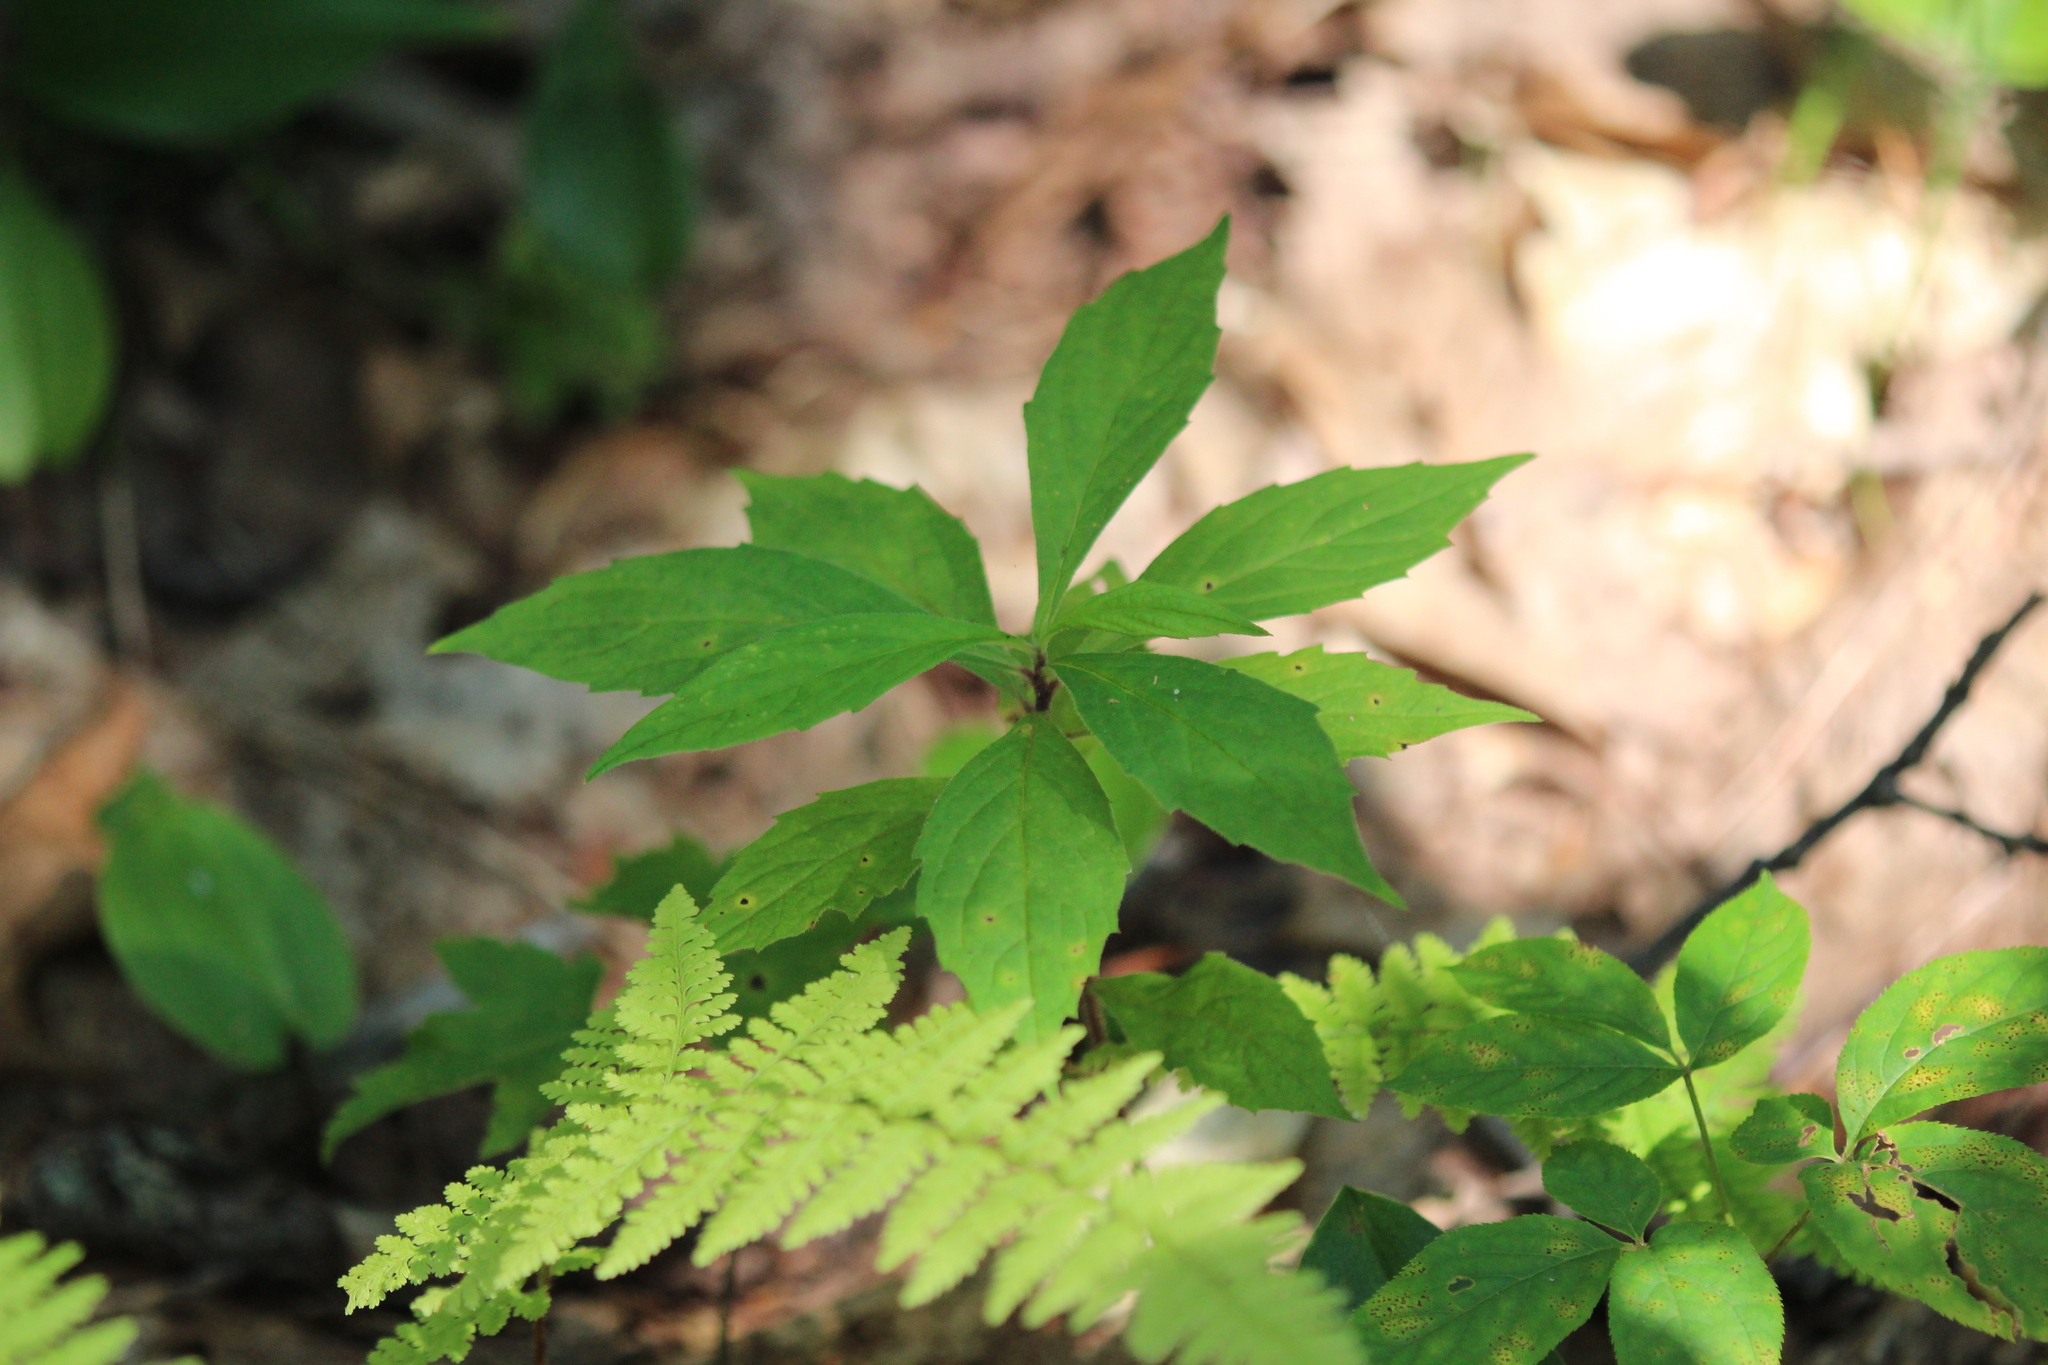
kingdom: Plantae
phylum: Tracheophyta
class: Magnoliopsida
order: Asterales
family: Asteraceae
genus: Oclemena
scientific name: Oclemena acuminata
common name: Mountain aster
